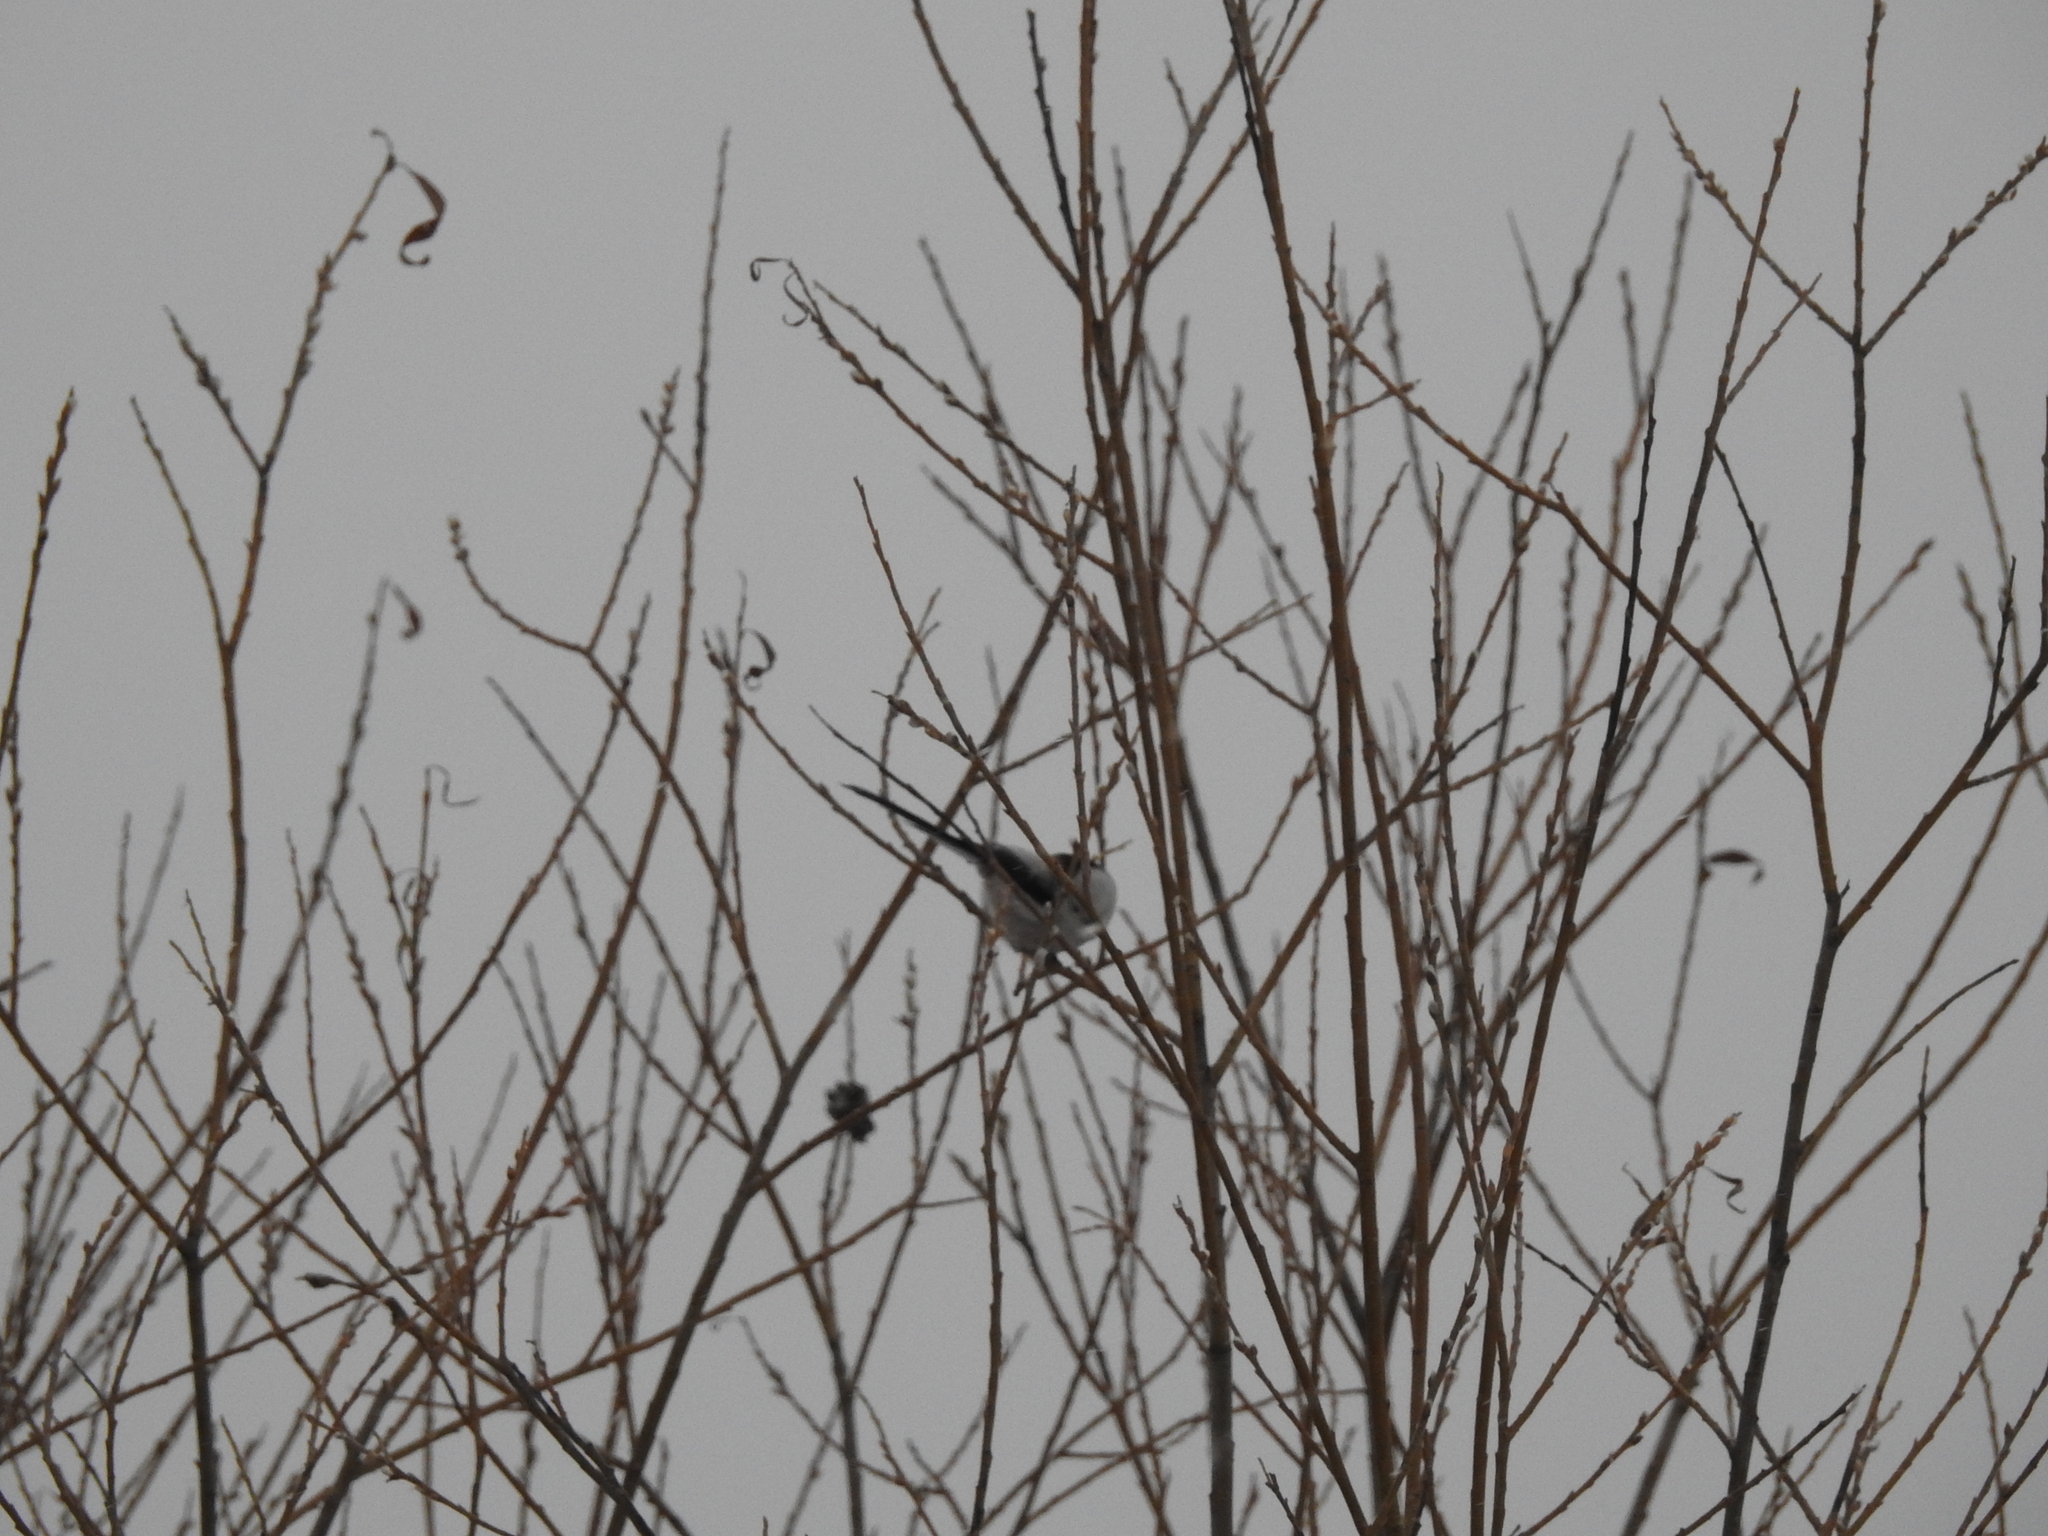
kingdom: Animalia
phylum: Chordata
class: Aves
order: Passeriformes
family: Aegithalidae
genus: Aegithalos
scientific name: Aegithalos caudatus
